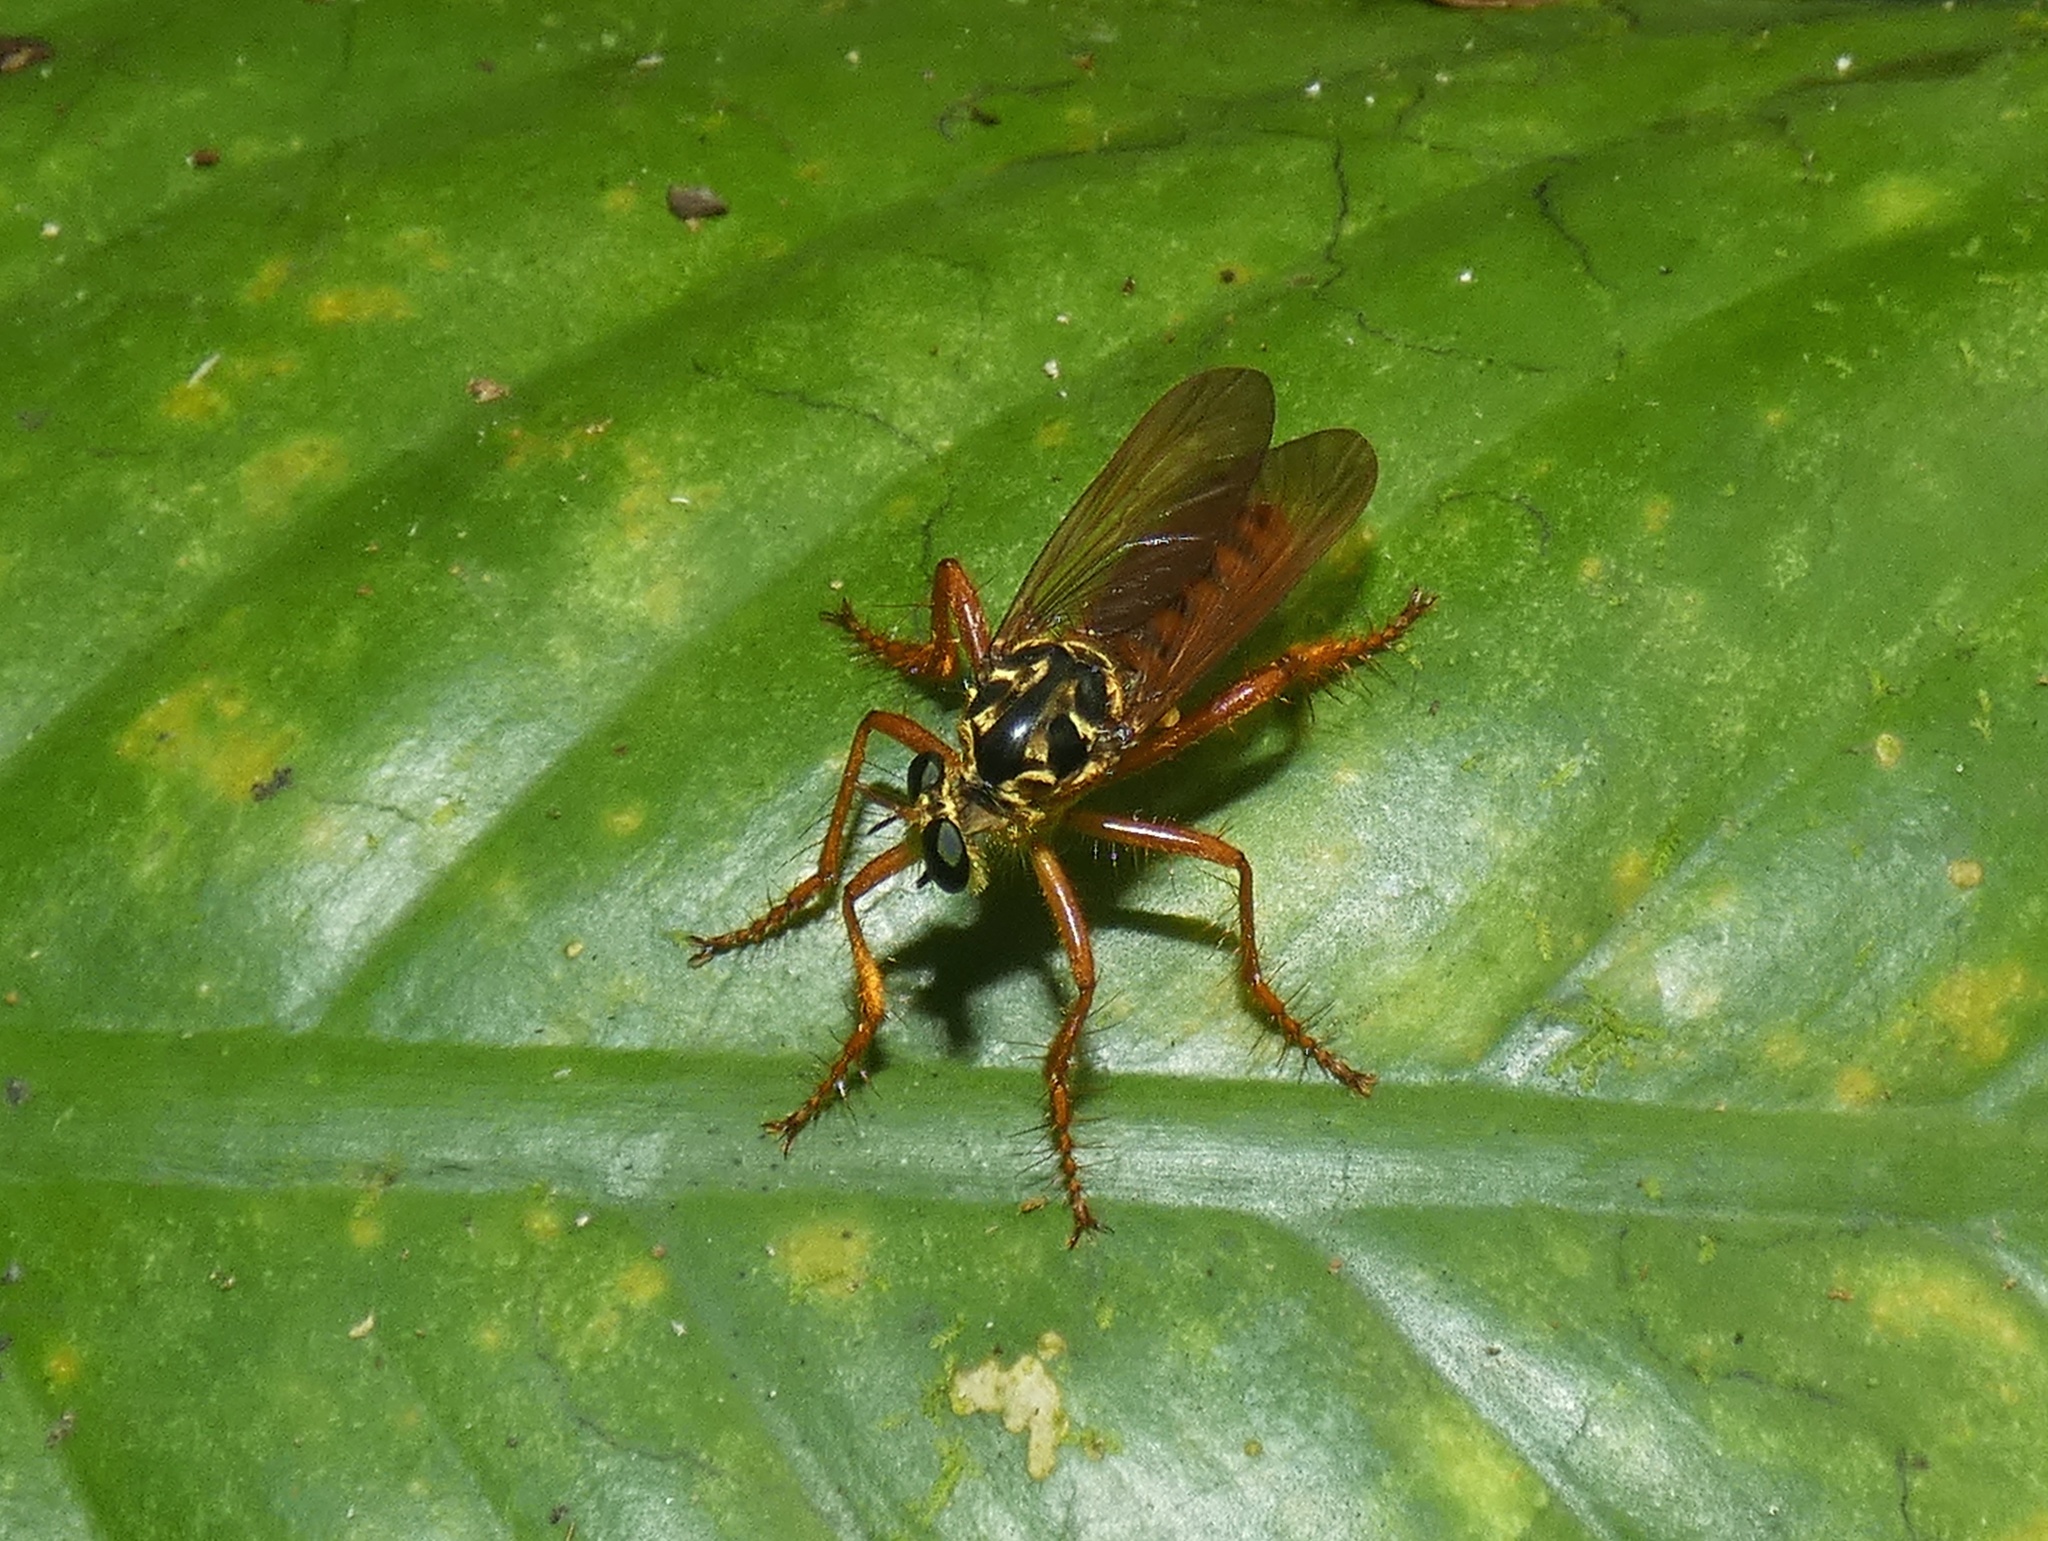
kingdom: Animalia
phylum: Arthropoda
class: Insecta
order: Diptera
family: Asilidae
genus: Smeryngolaphria
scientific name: Smeryngolaphria numitor
